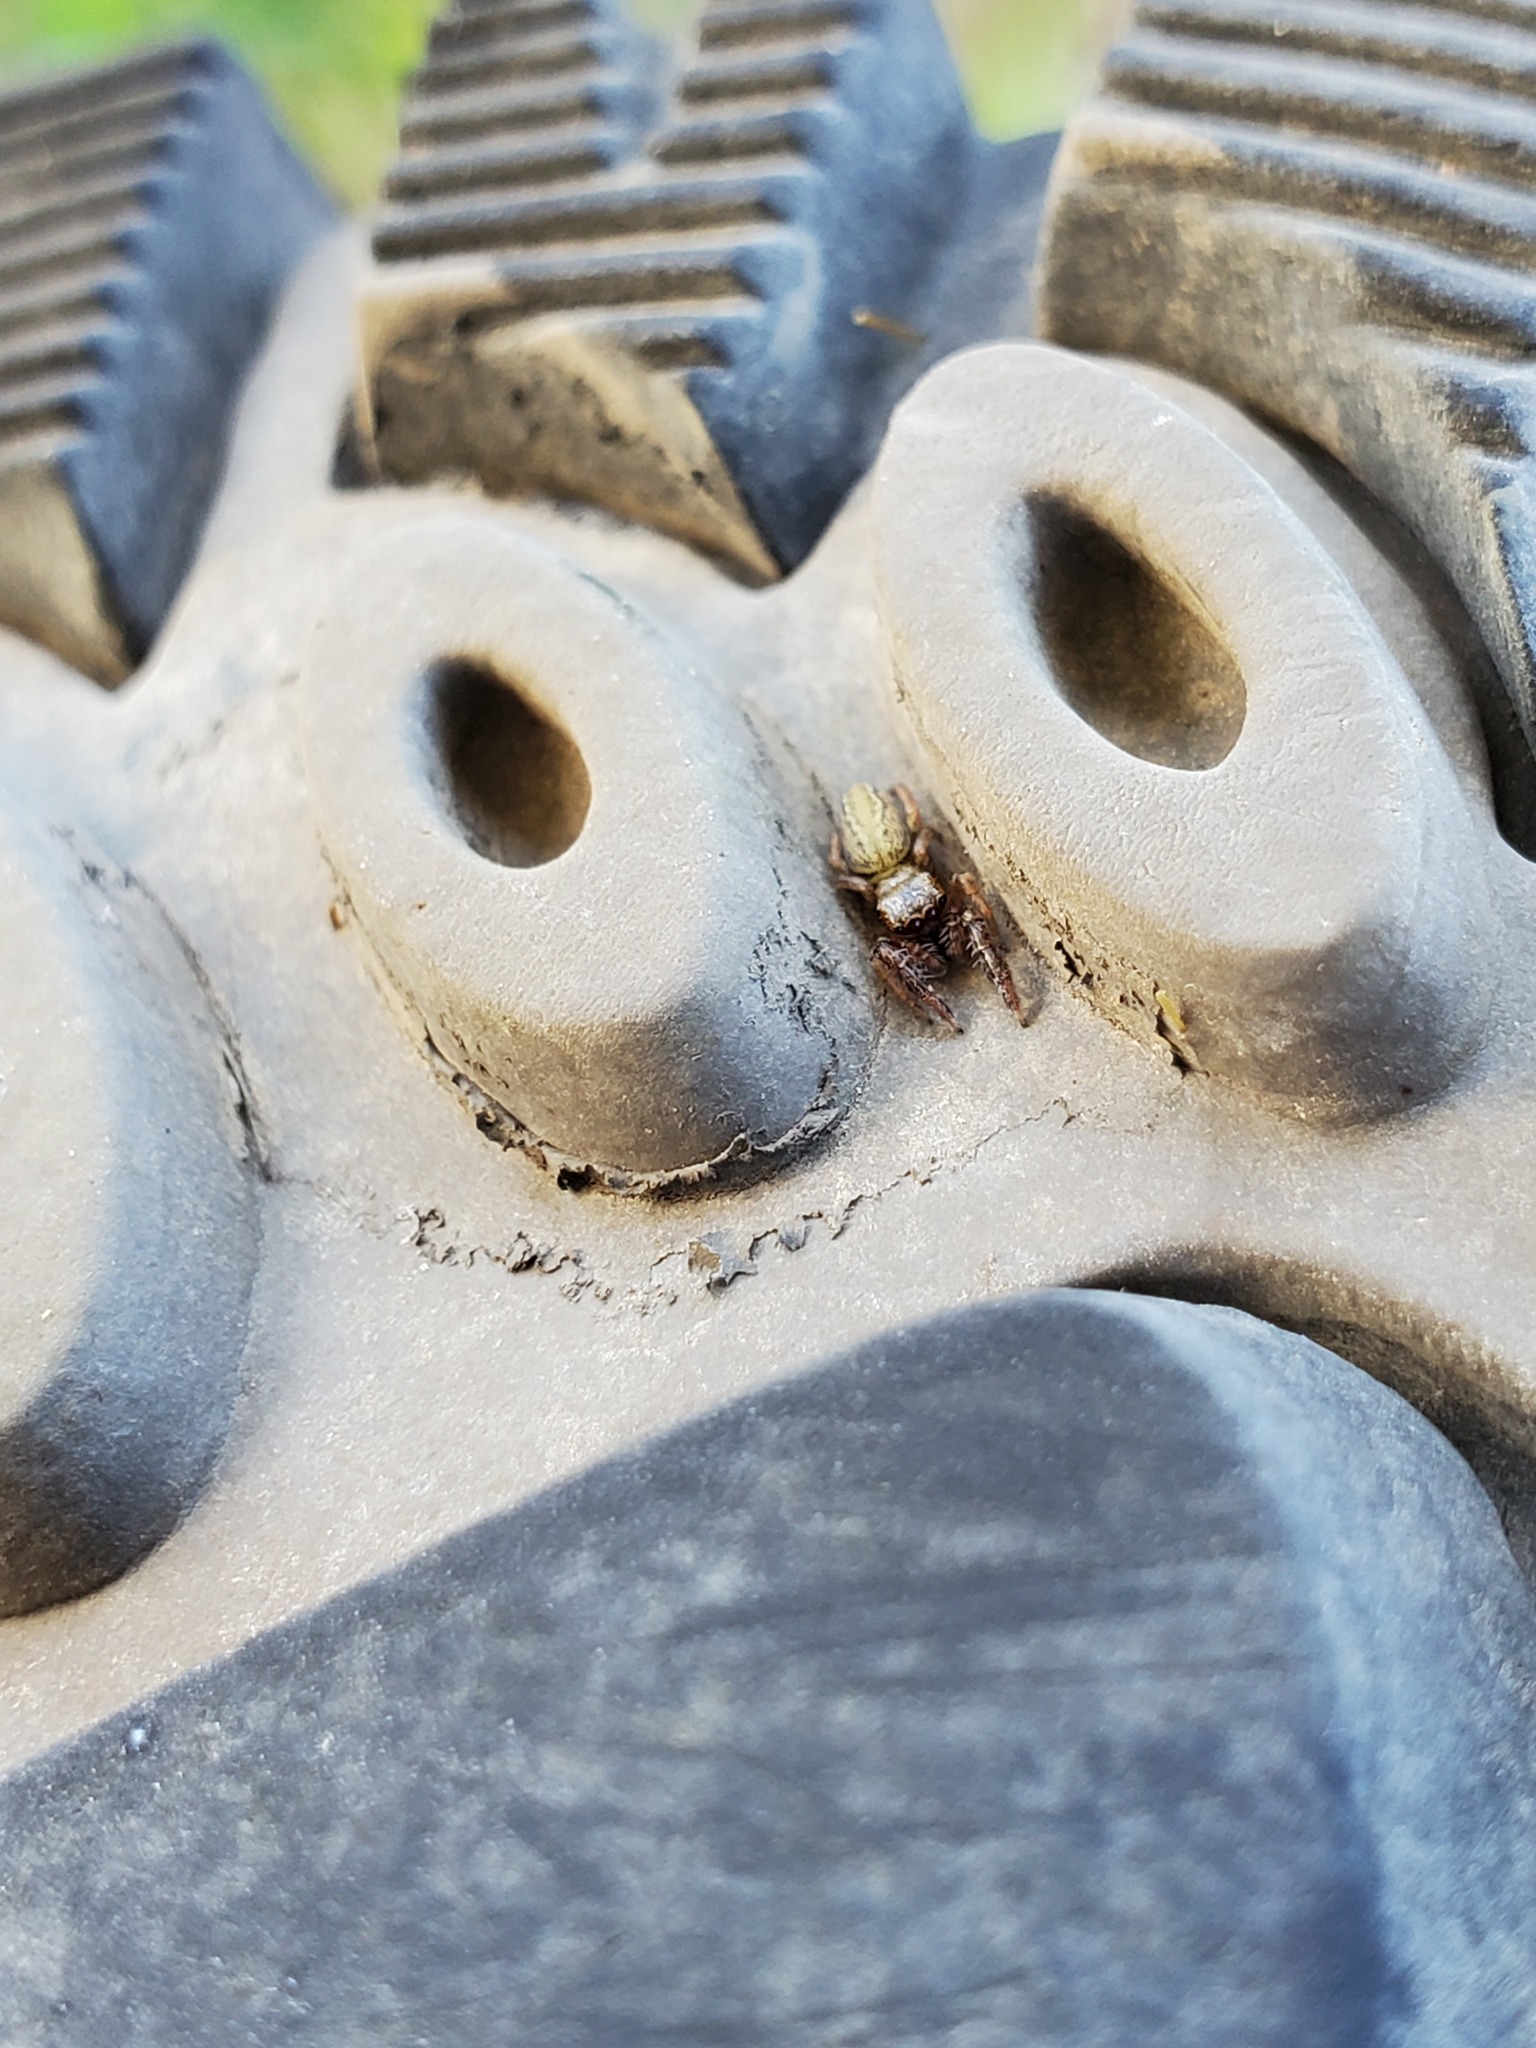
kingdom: Animalia
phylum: Arthropoda
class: Arachnida
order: Araneae
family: Salticidae
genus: Marpissa
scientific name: Marpissa lineata
